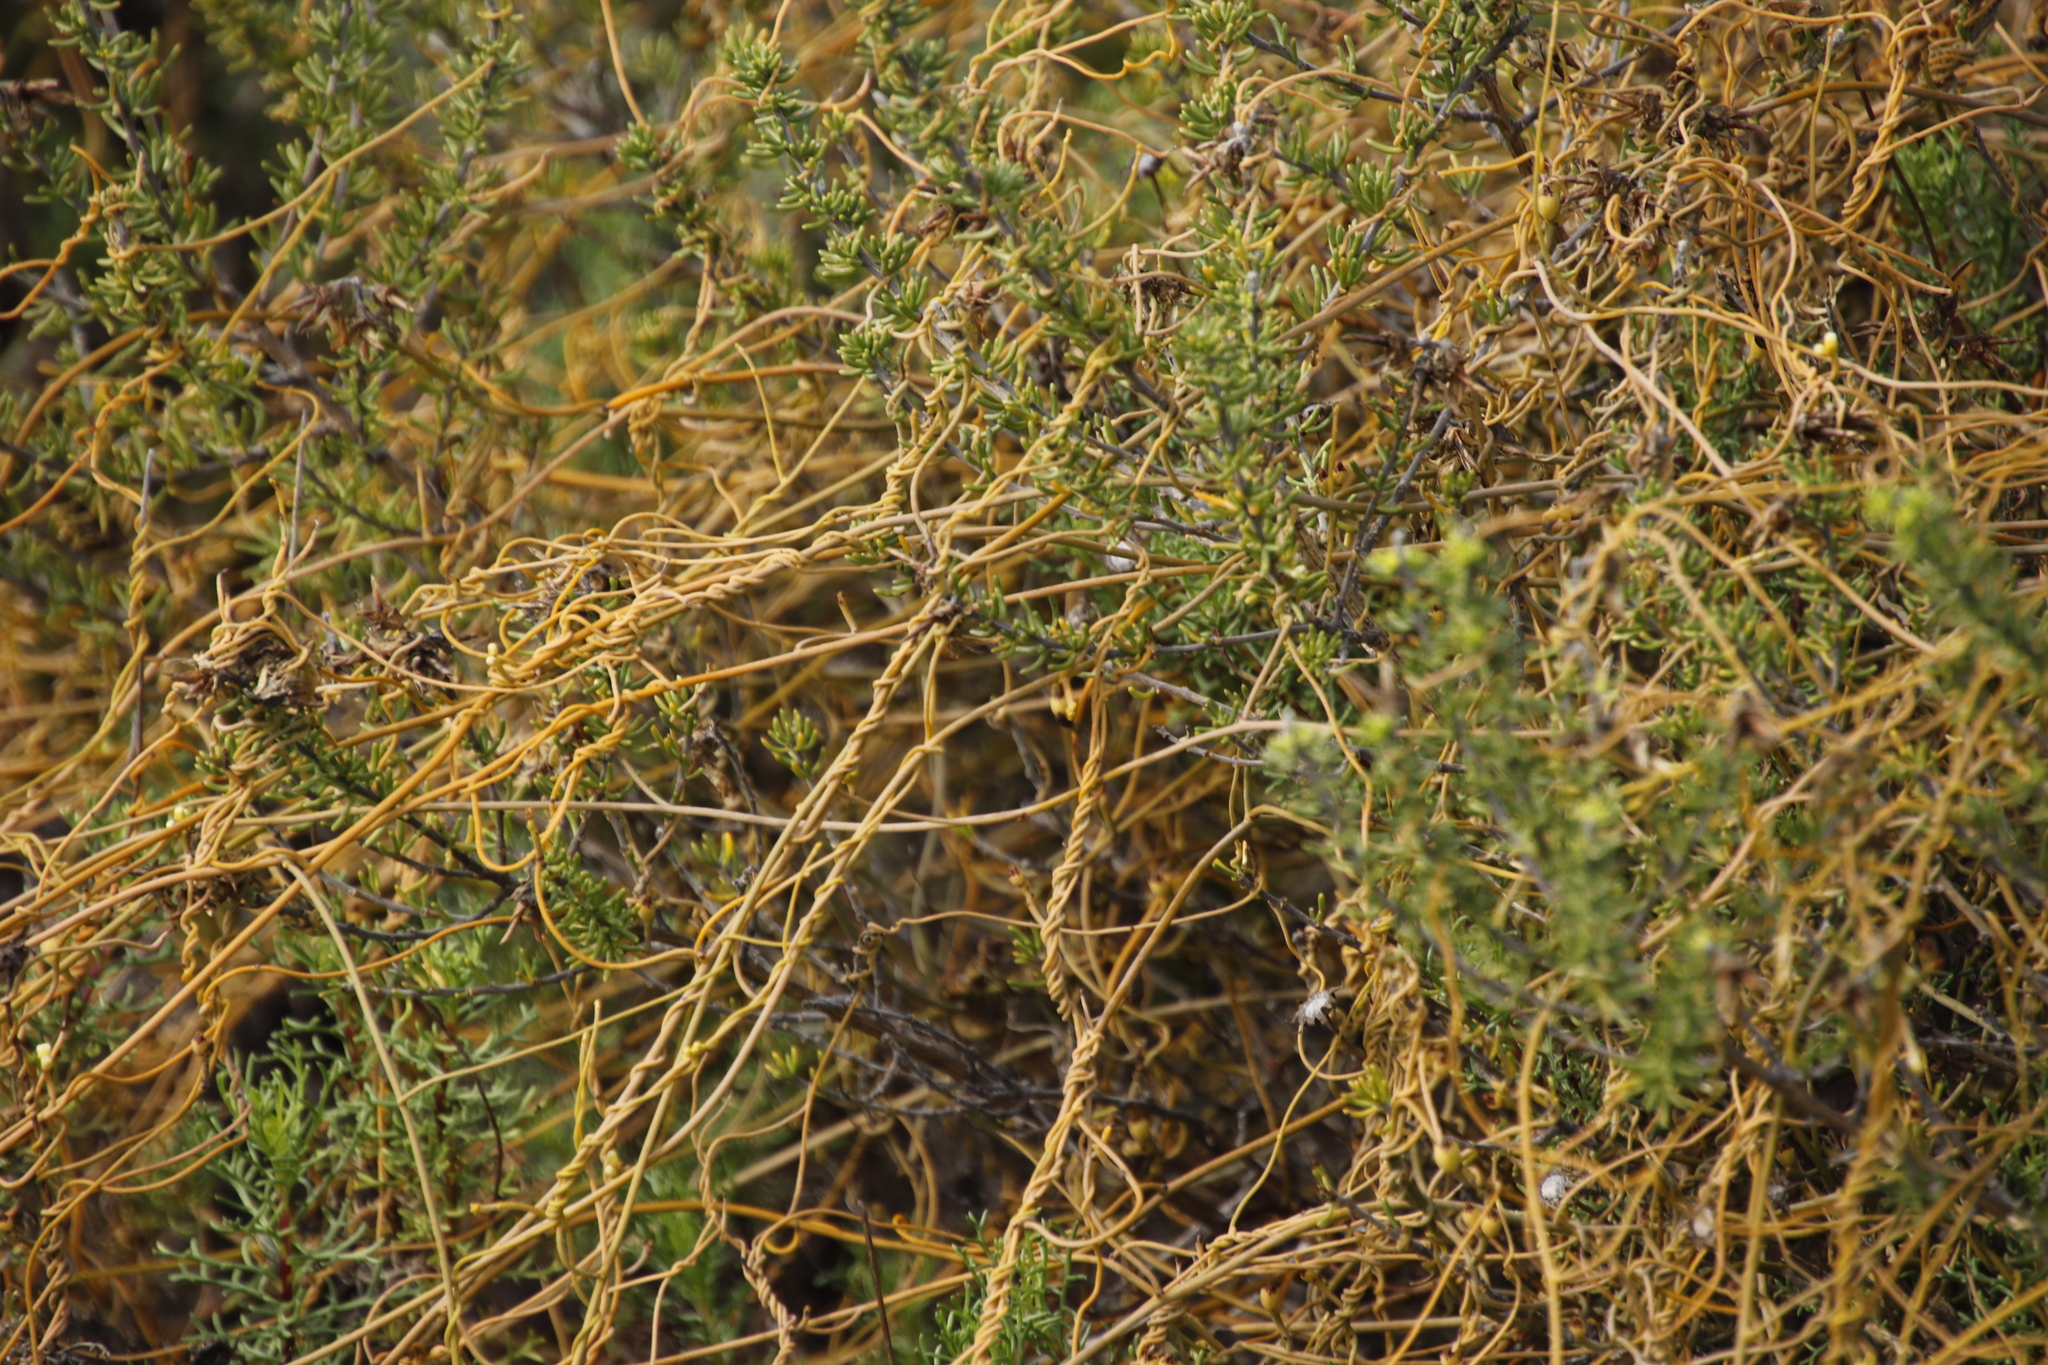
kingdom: Plantae
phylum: Tracheophyta
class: Magnoliopsida
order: Laurales
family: Lauraceae
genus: Cassytha
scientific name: Cassytha ciliolata
